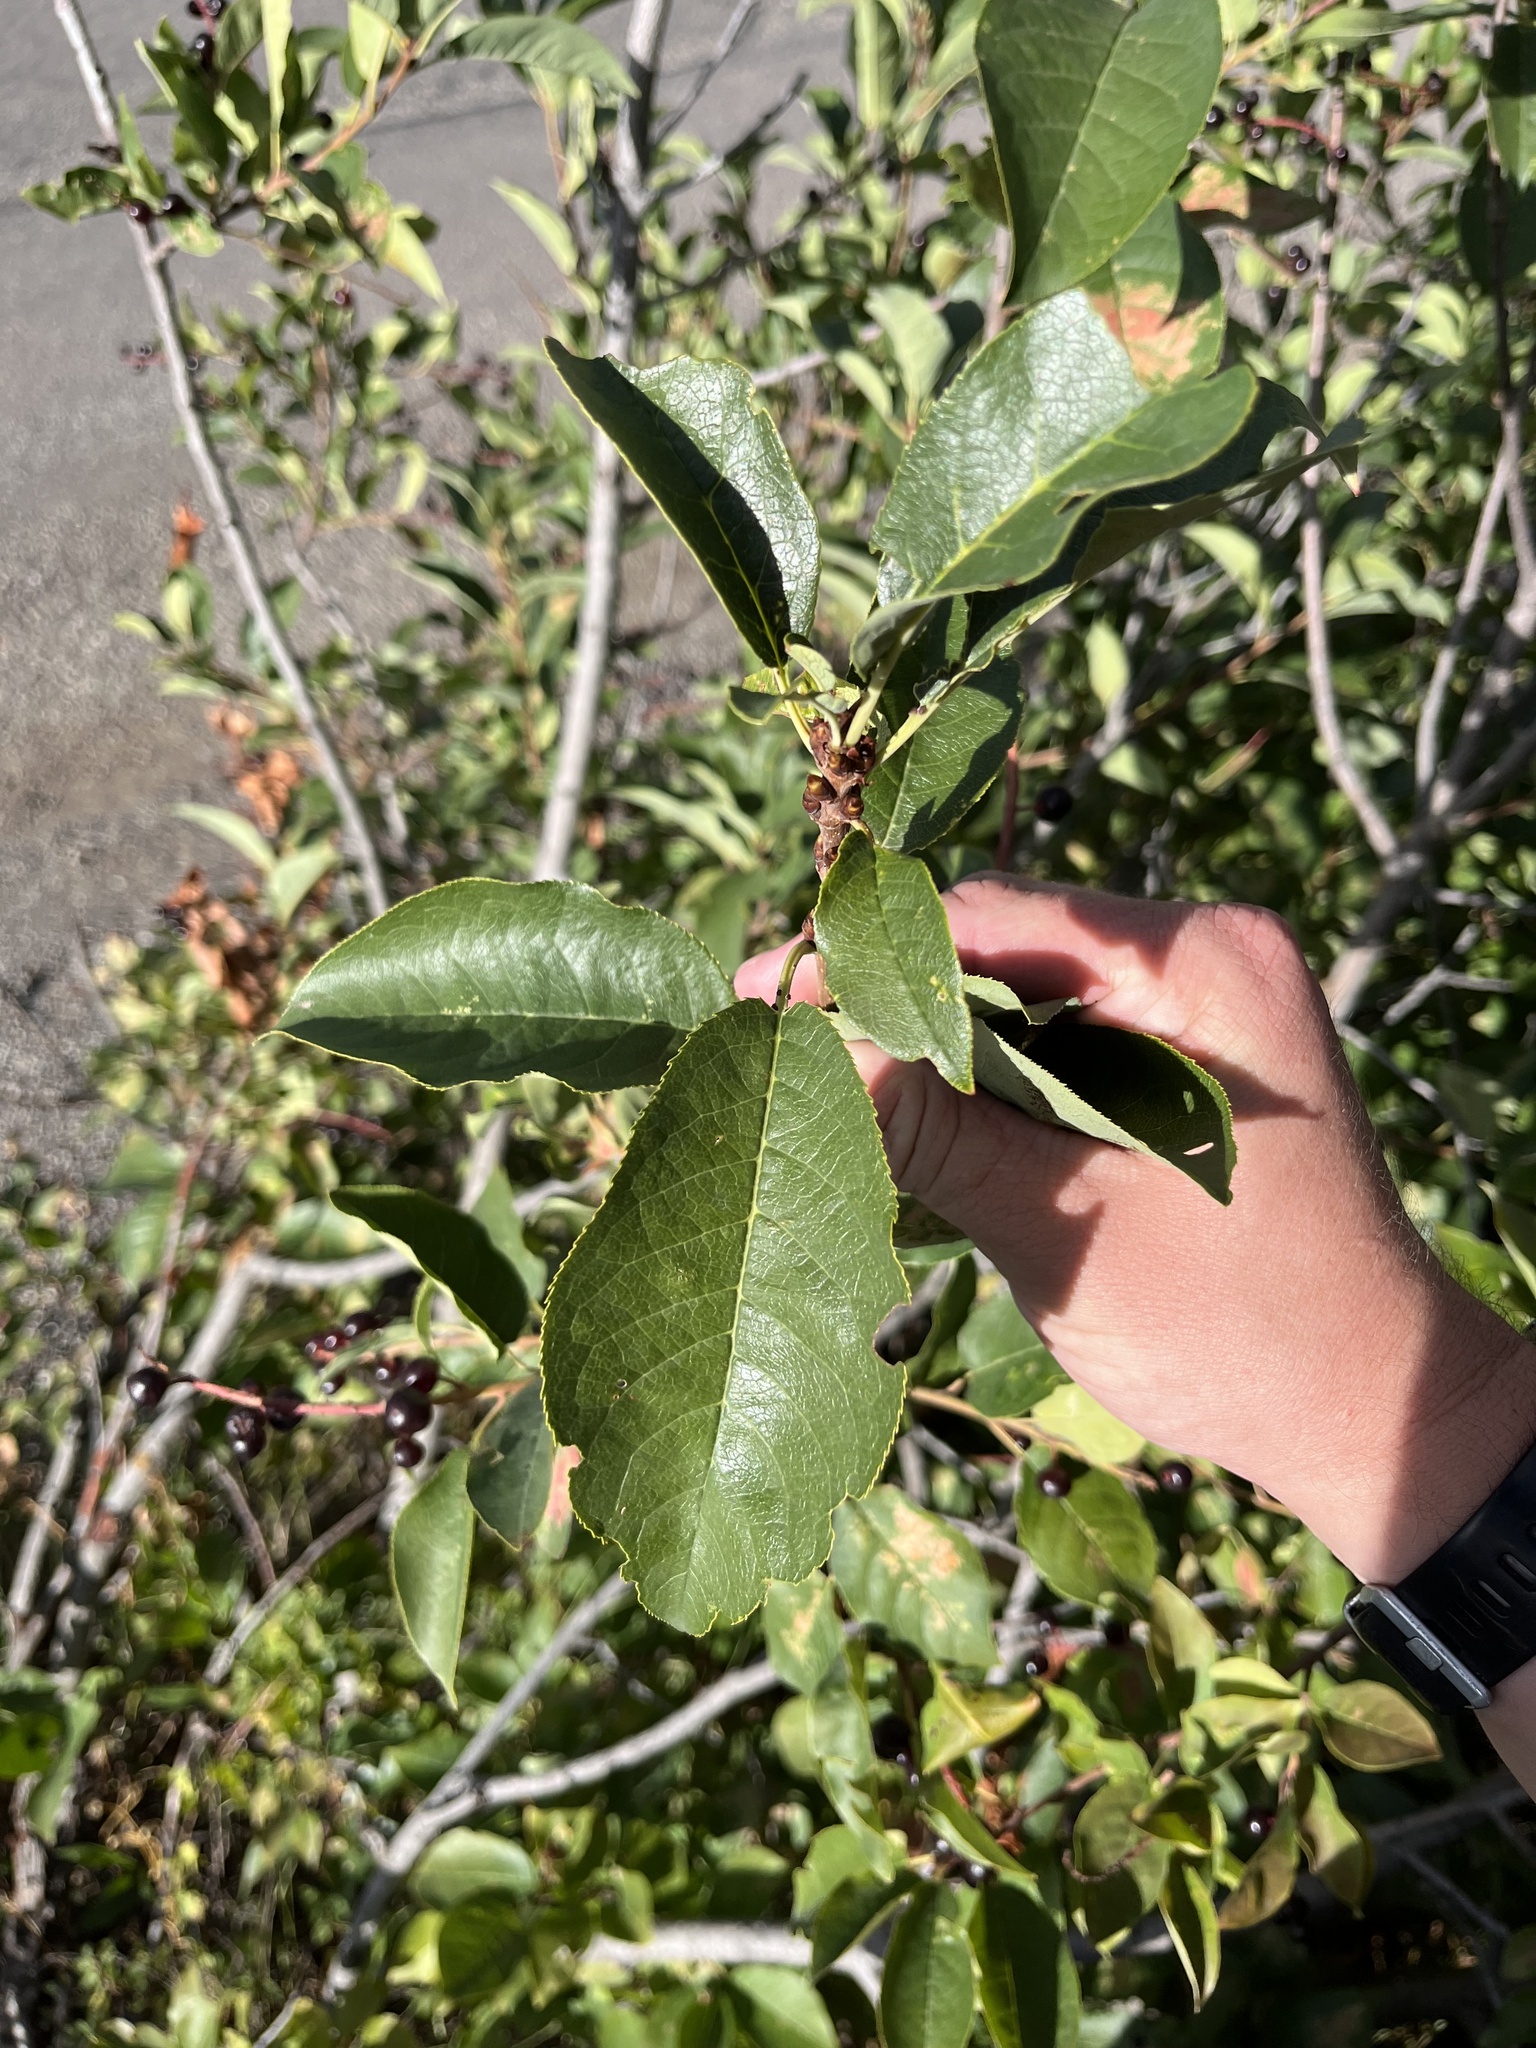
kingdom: Plantae
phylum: Tracheophyta
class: Magnoliopsida
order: Rosales
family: Rosaceae
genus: Prunus
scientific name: Prunus virginiana
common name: Chokecherry
